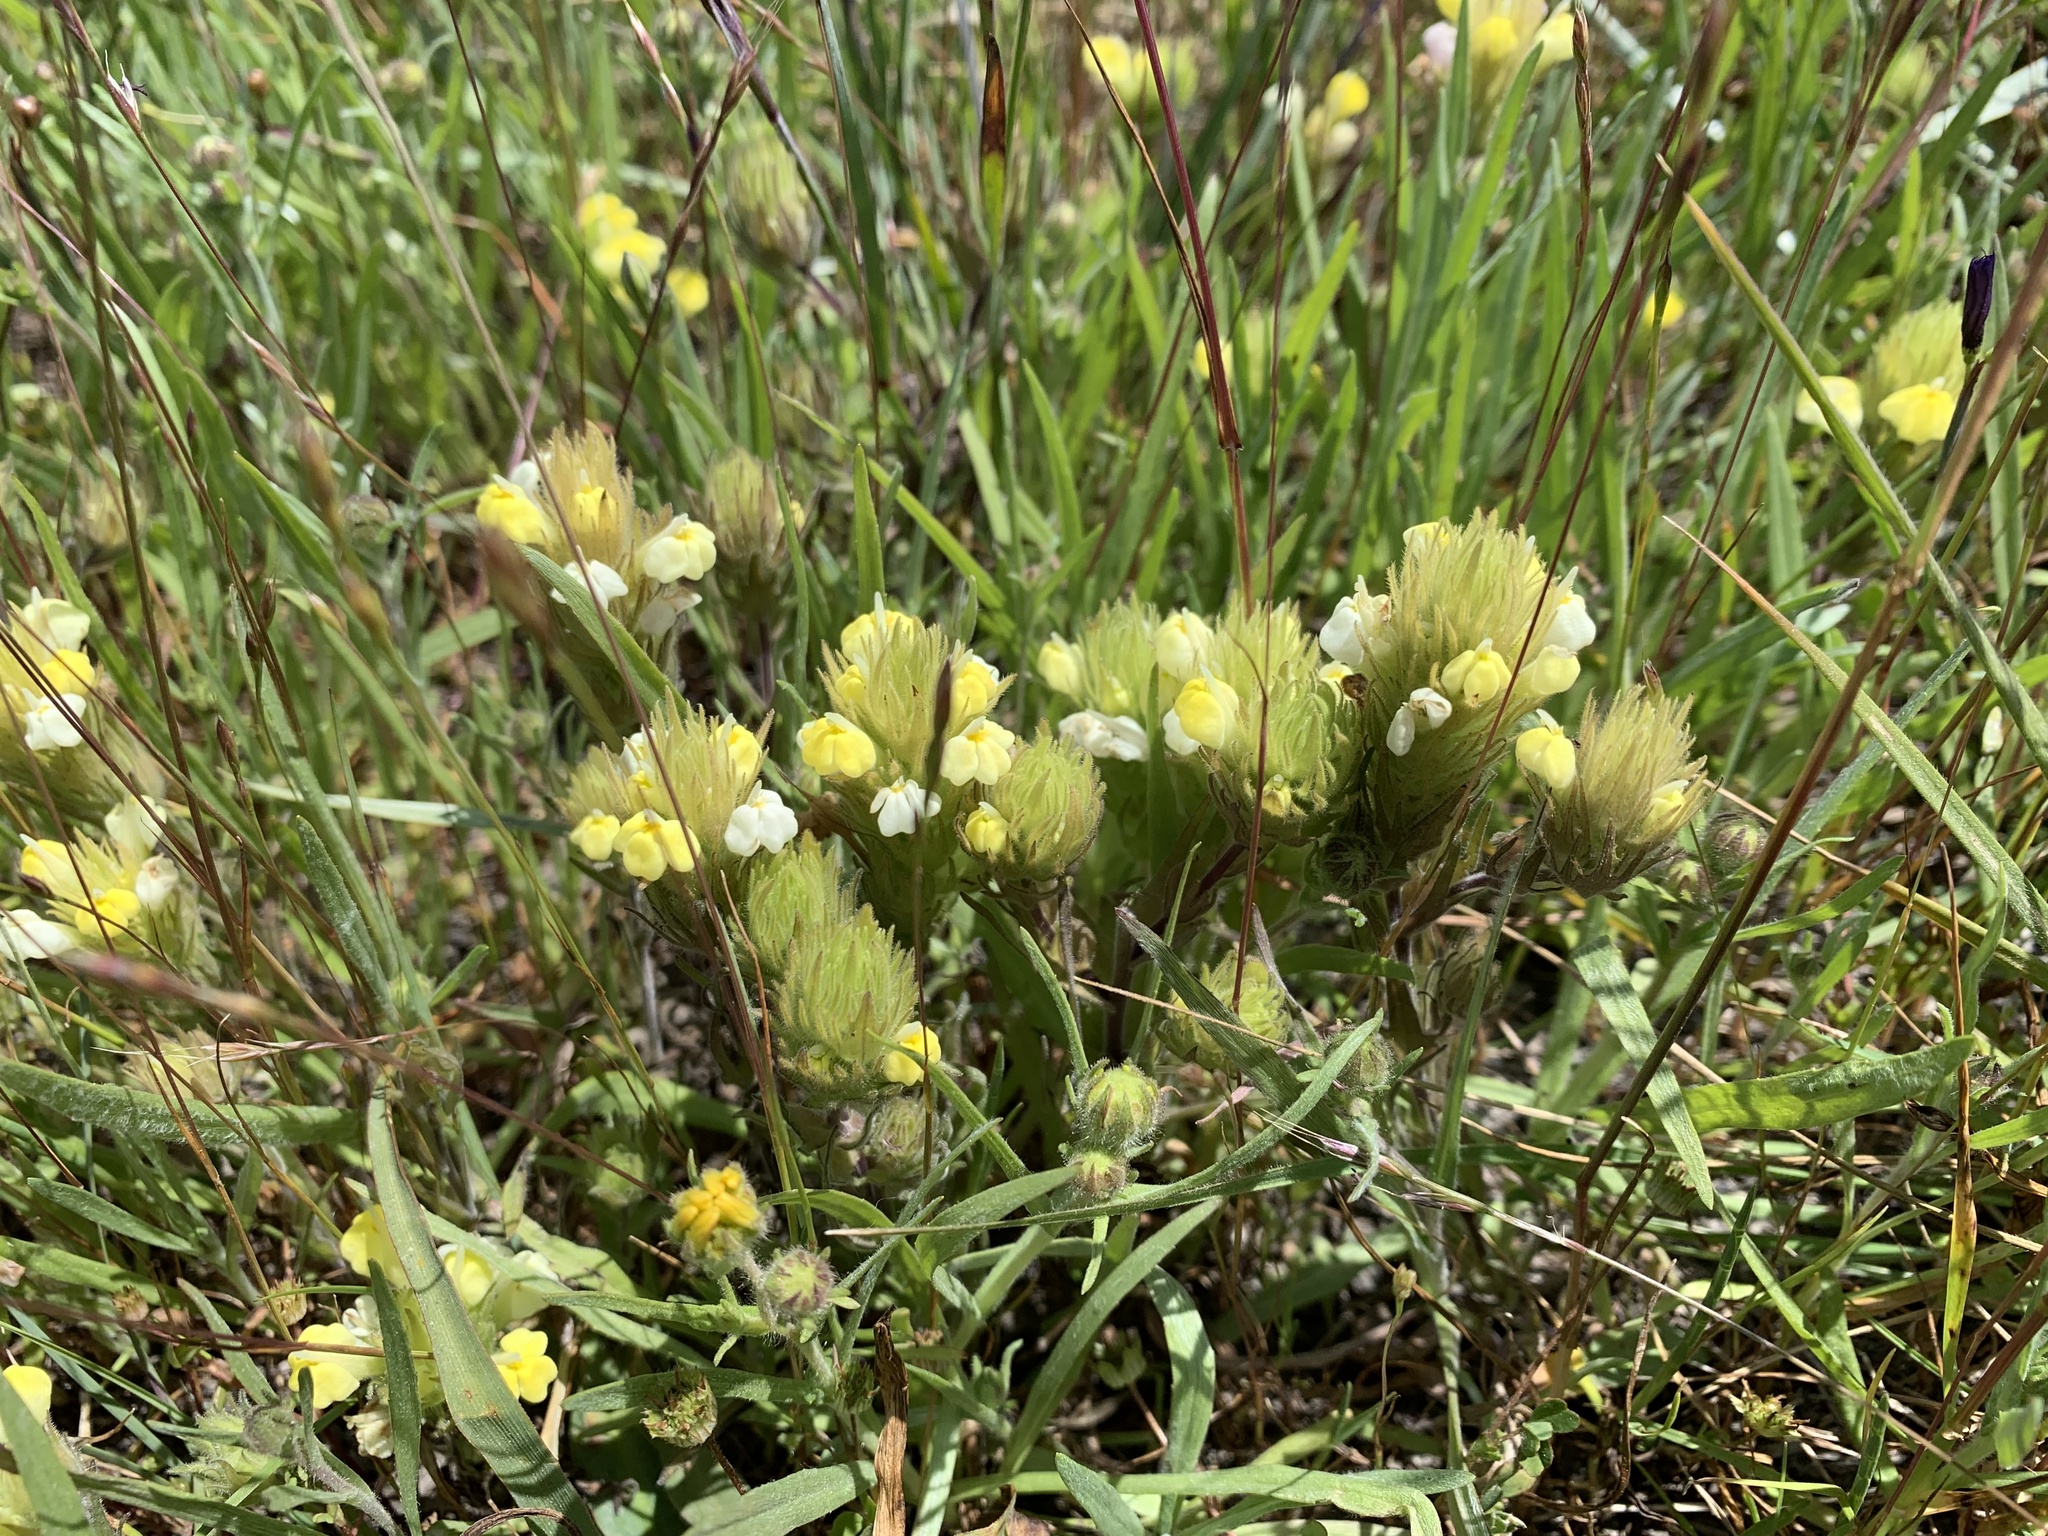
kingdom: Plantae
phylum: Tracheophyta
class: Magnoliopsida
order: Lamiales
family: Orobanchaceae
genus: Castilleja
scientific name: Castilleja rubicundula
